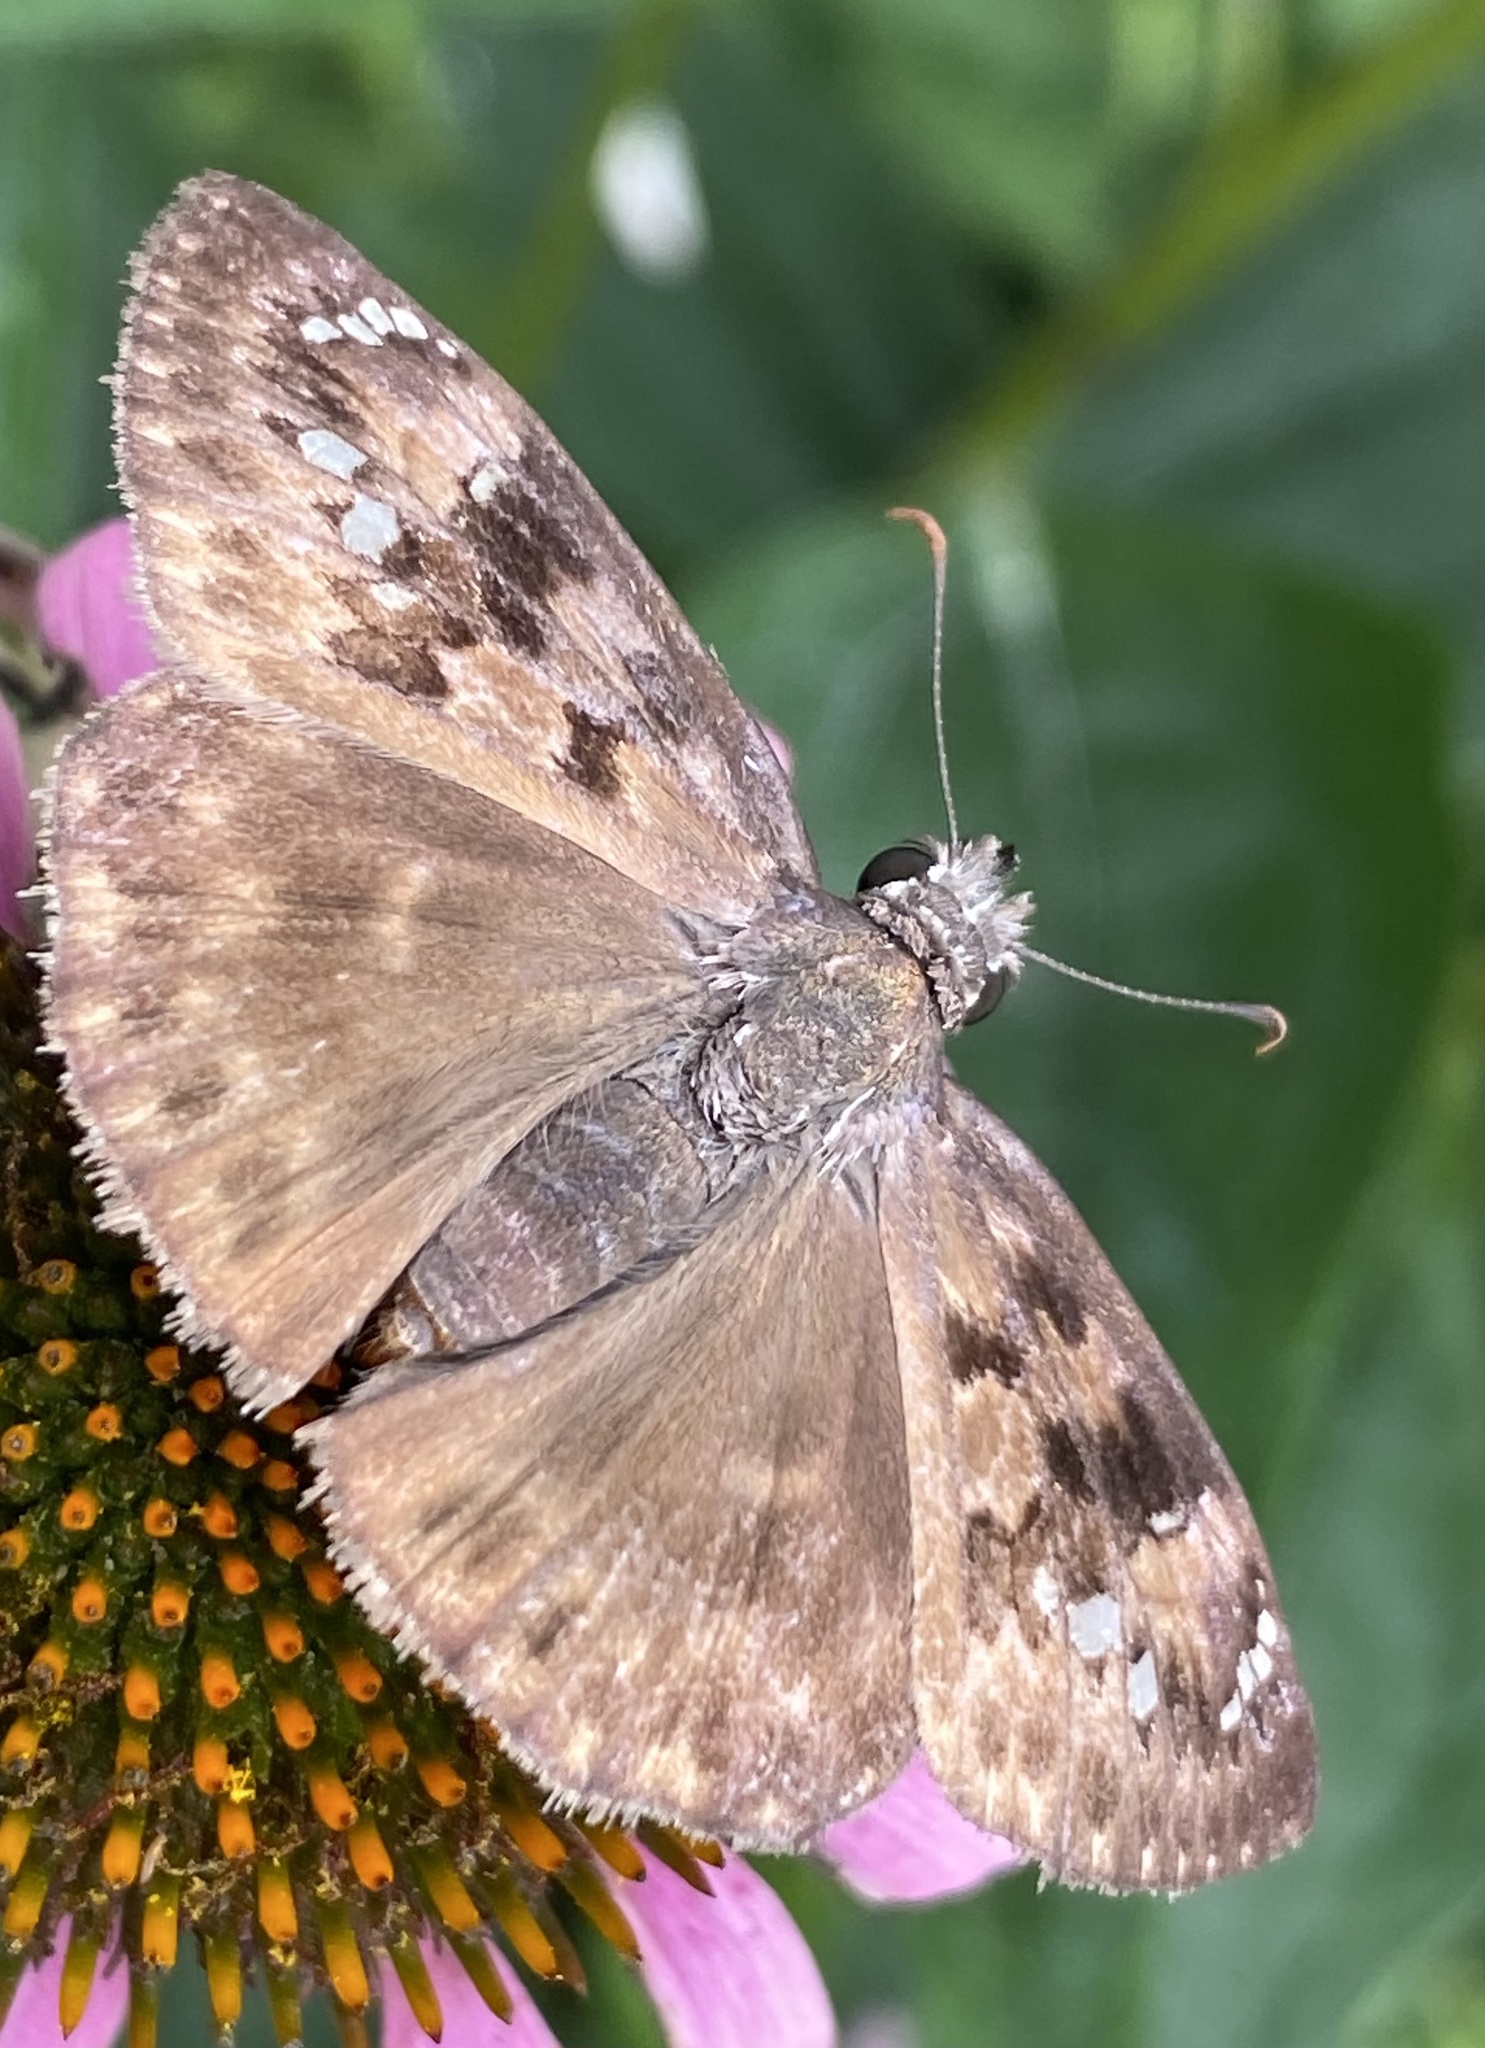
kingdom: Animalia
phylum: Arthropoda
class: Insecta
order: Lepidoptera
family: Hesperiidae
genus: Erynnis
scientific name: Erynnis horatius
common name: Horace's duskywing
